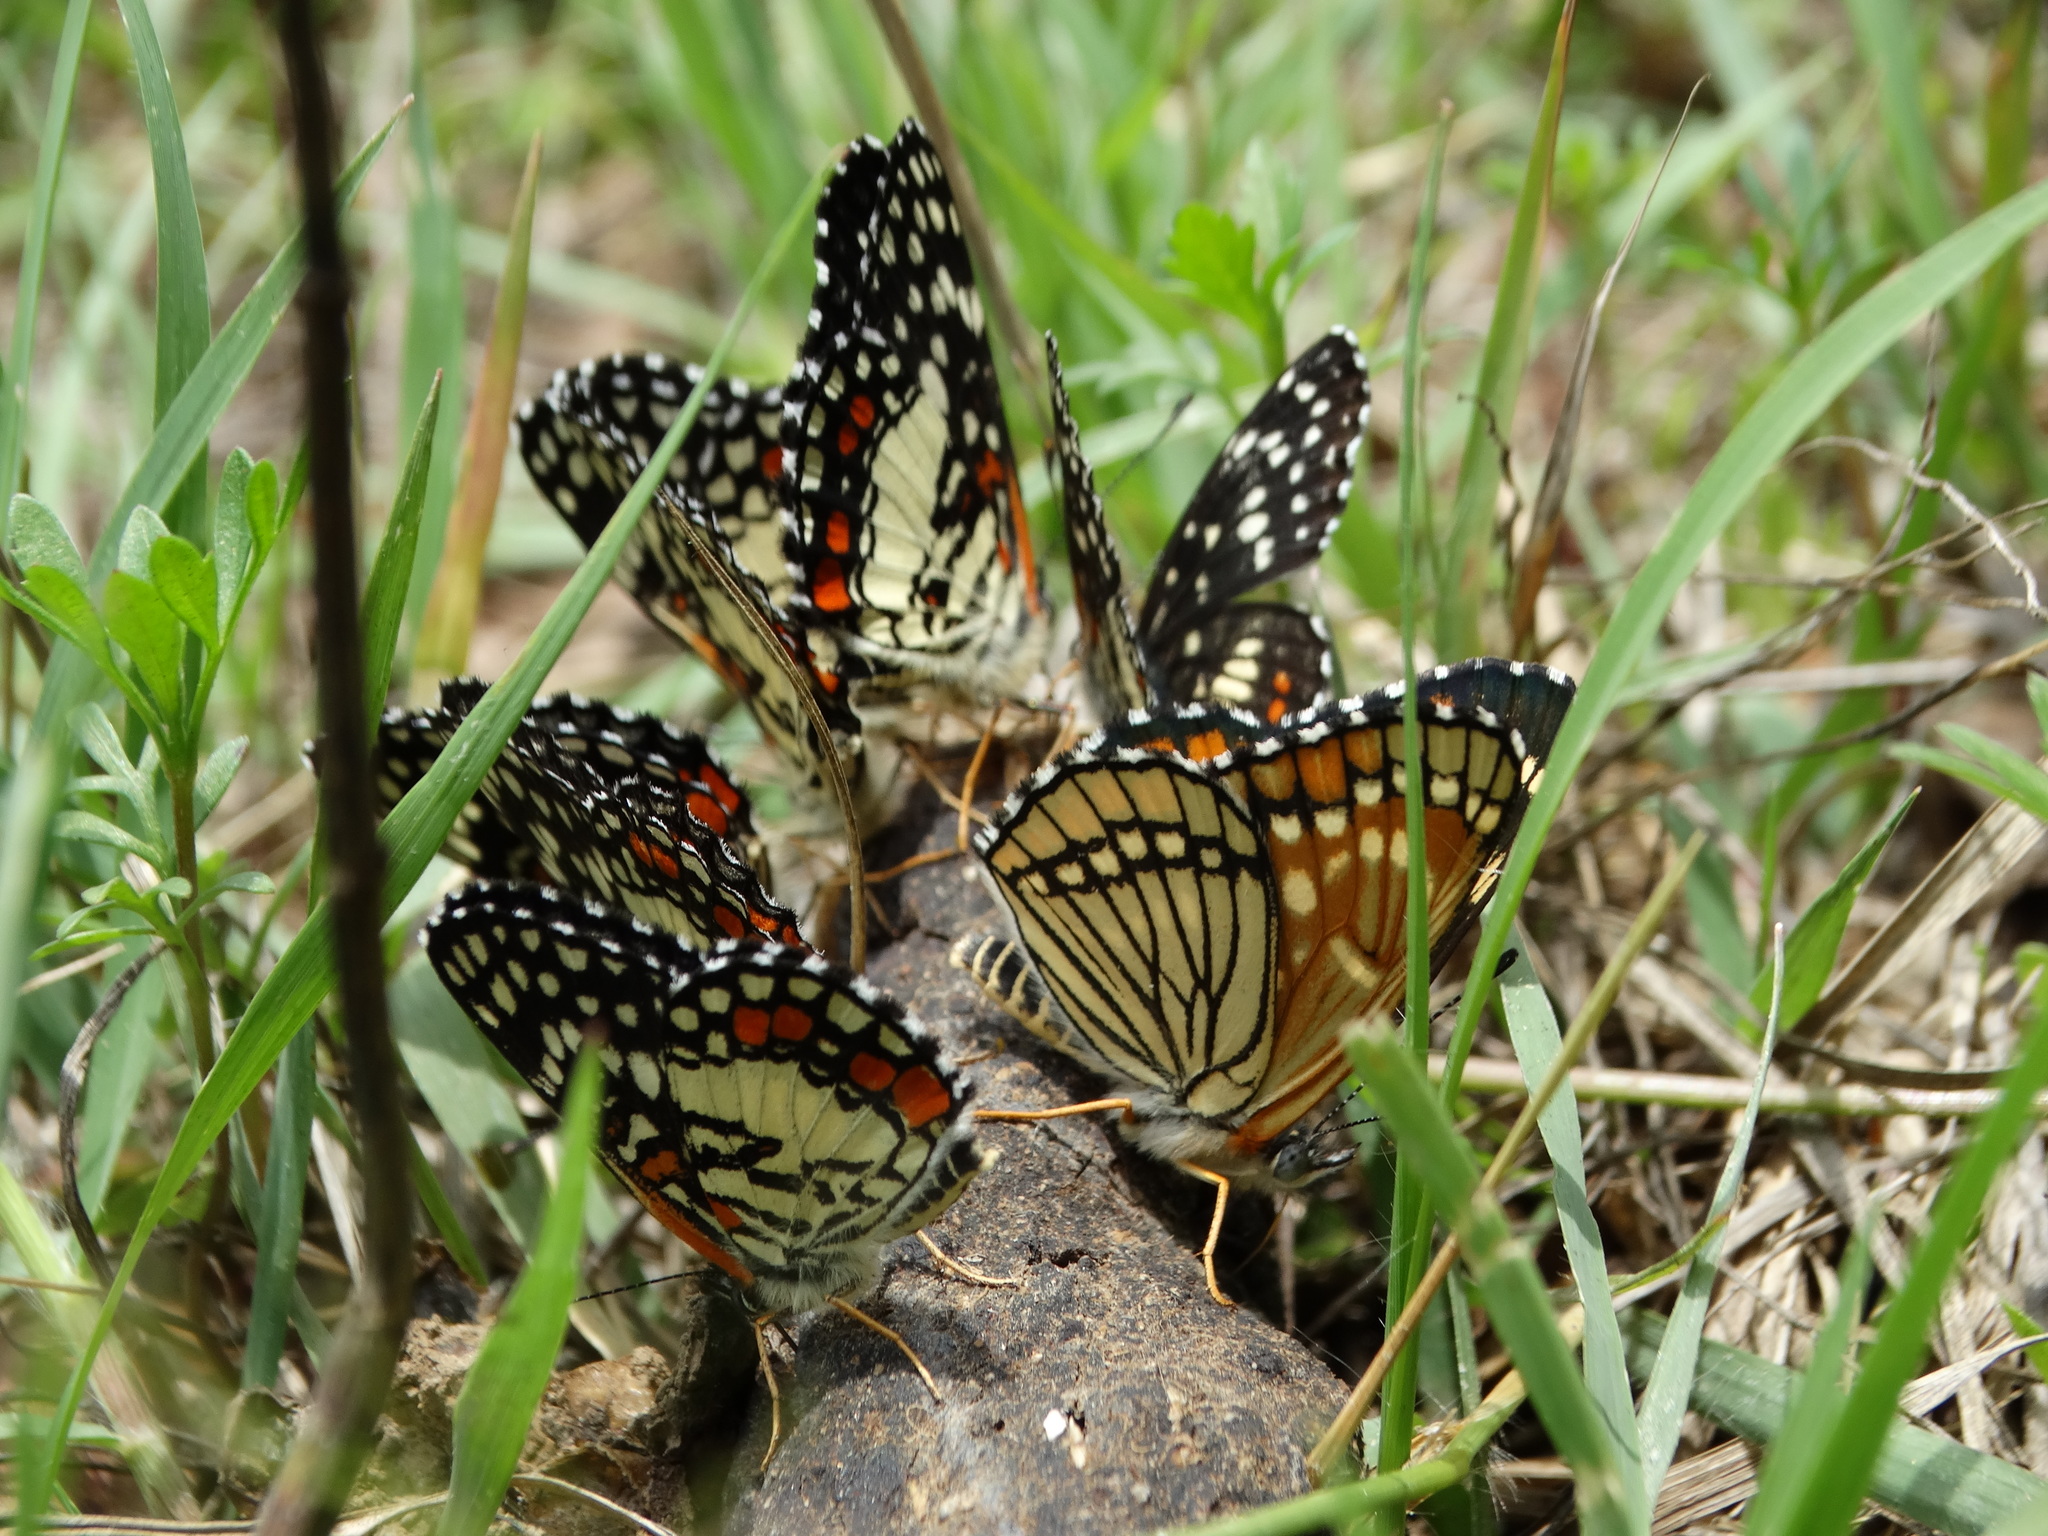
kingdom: Animalia
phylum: Arthropoda
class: Insecta
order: Lepidoptera
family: Nymphalidae
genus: Chlosyne
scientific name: Chlosyne marina
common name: Red-spotted patch
